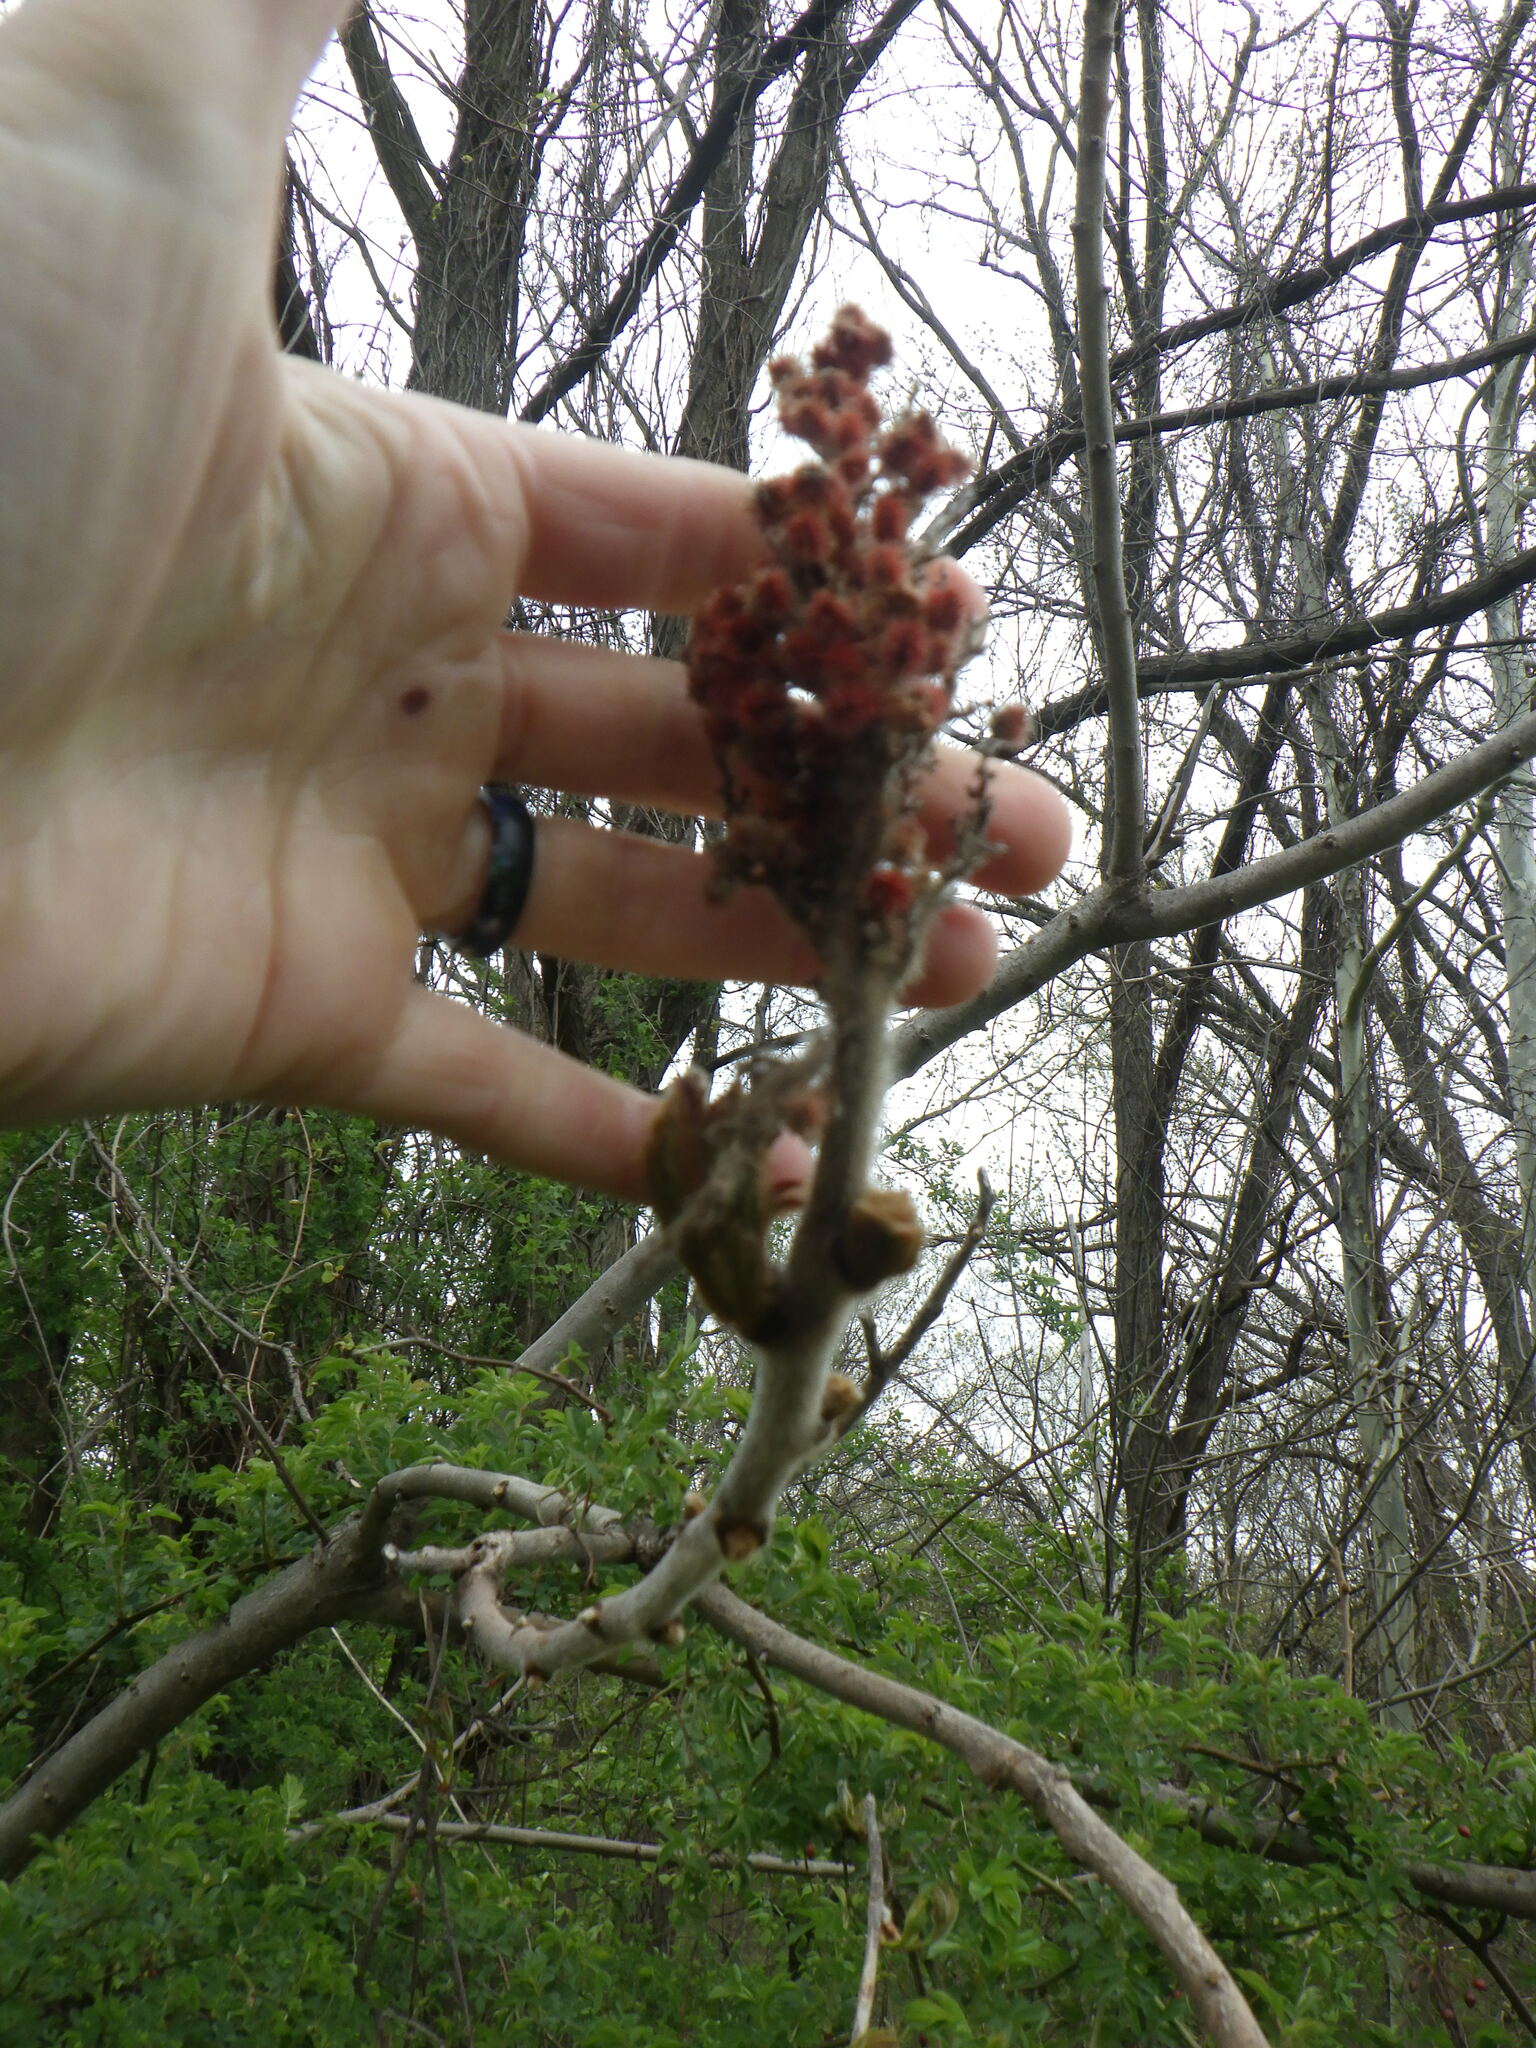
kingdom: Plantae
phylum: Tracheophyta
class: Magnoliopsida
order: Sapindales
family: Anacardiaceae
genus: Rhus
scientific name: Rhus typhina
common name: Staghorn sumac
